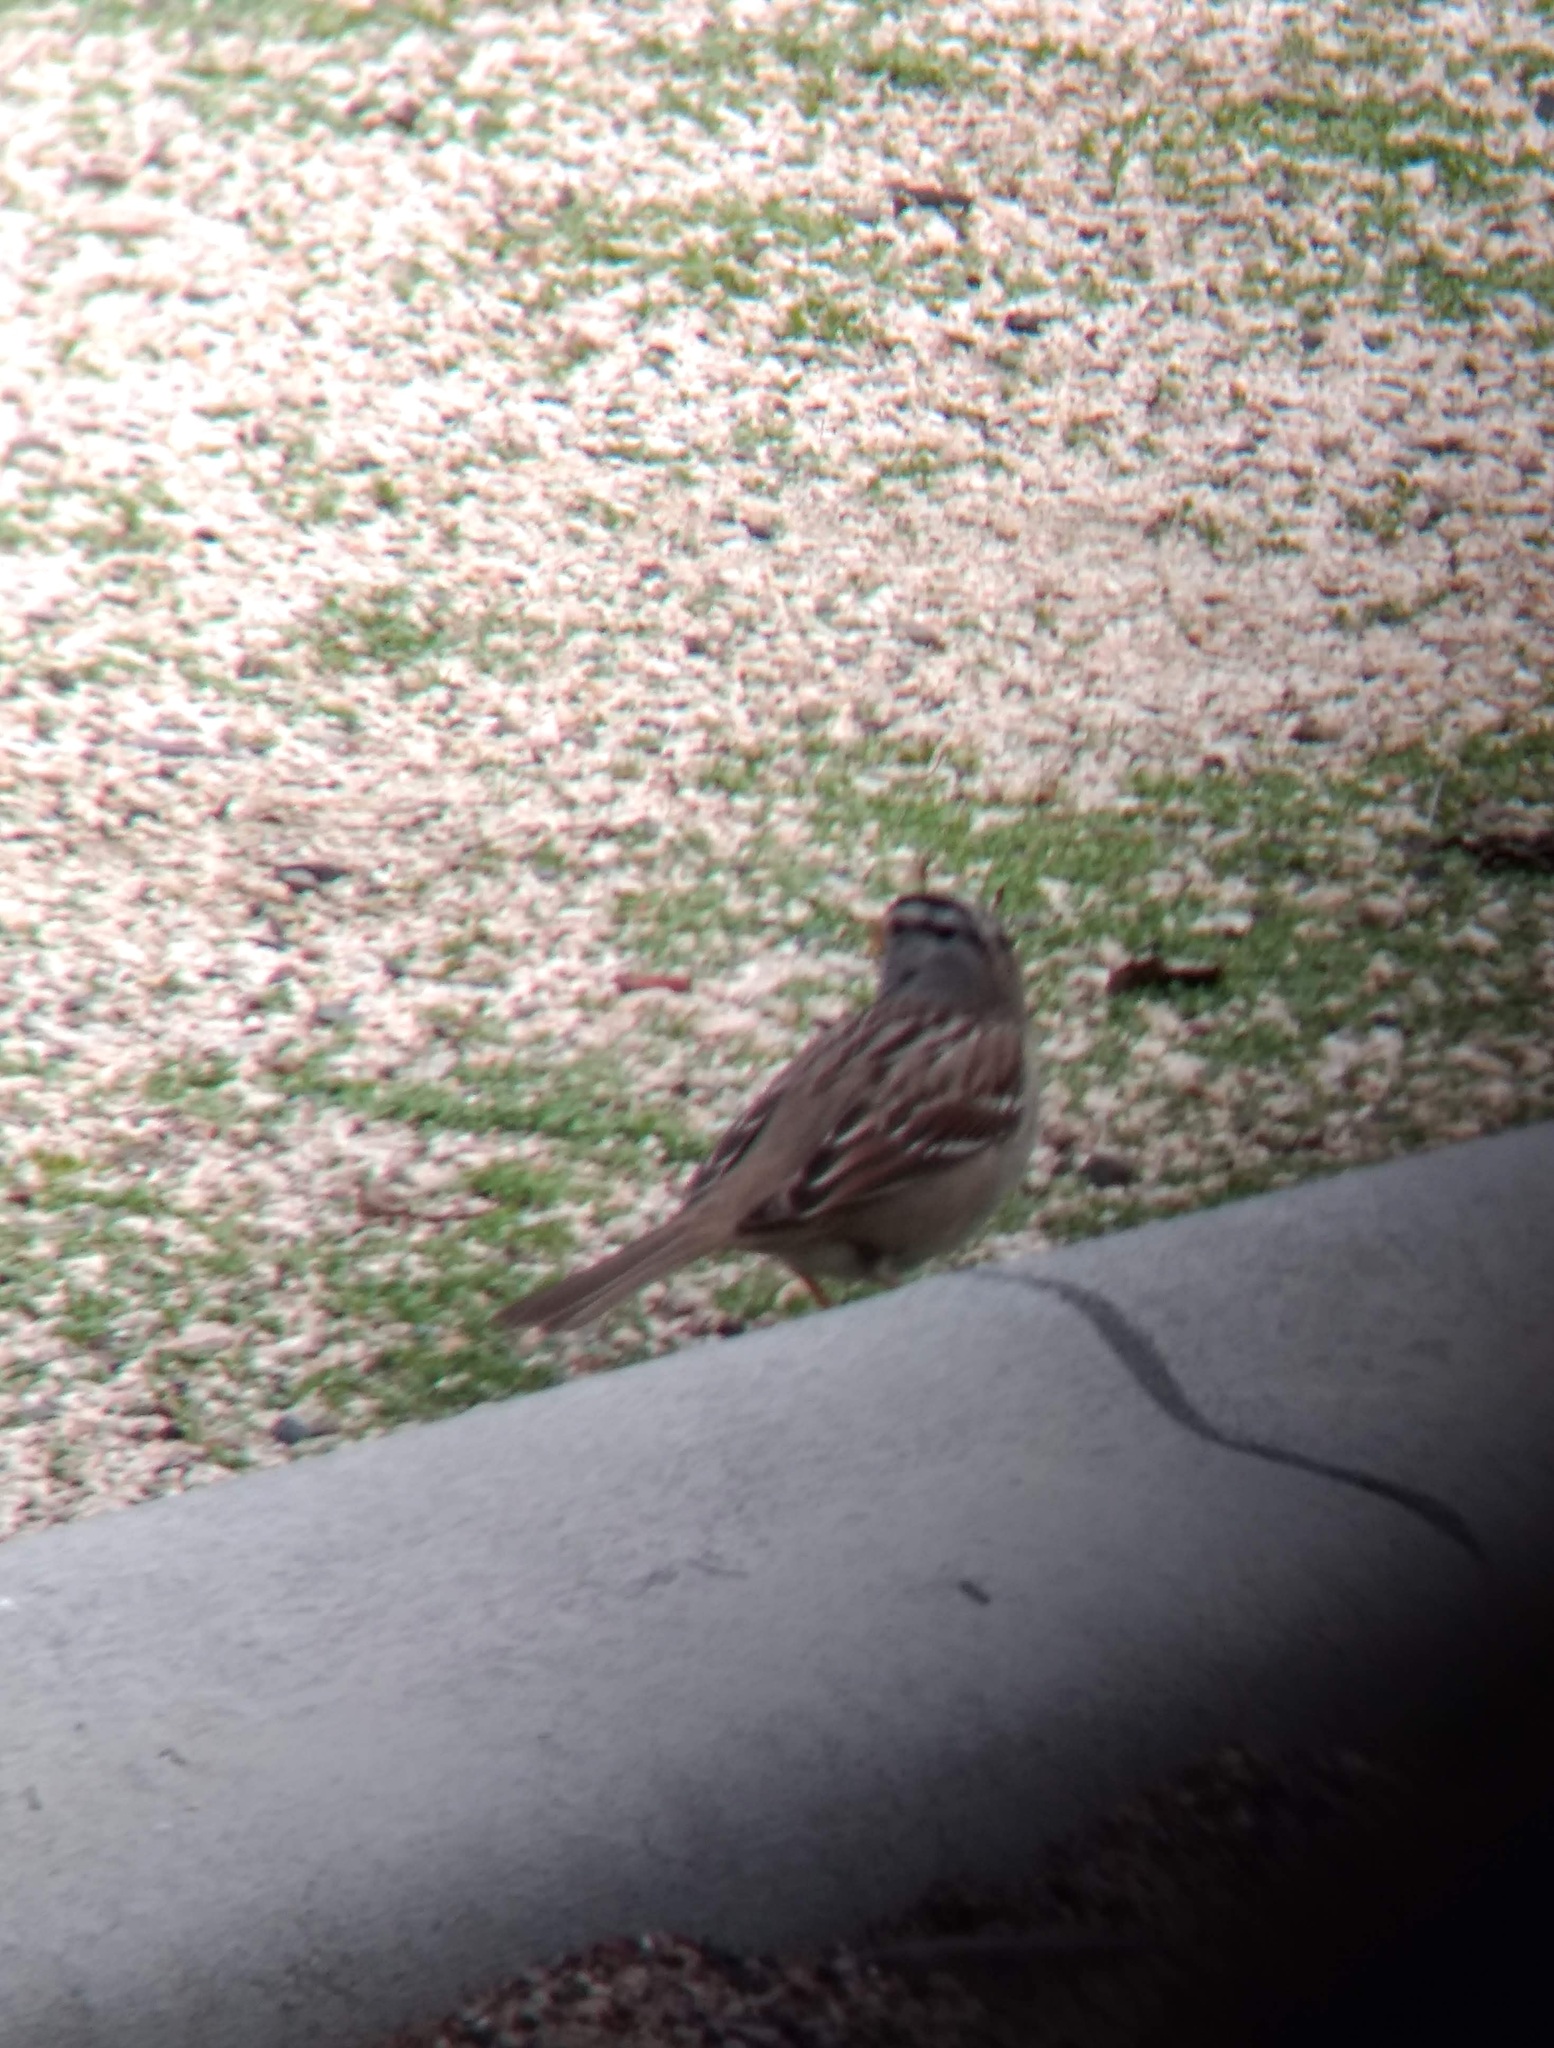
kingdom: Animalia
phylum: Chordata
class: Aves
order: Passeriformes
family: Passerellidae
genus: Zonotrichia
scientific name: Zonotrichia leucophrys
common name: White-crowned sparrow
